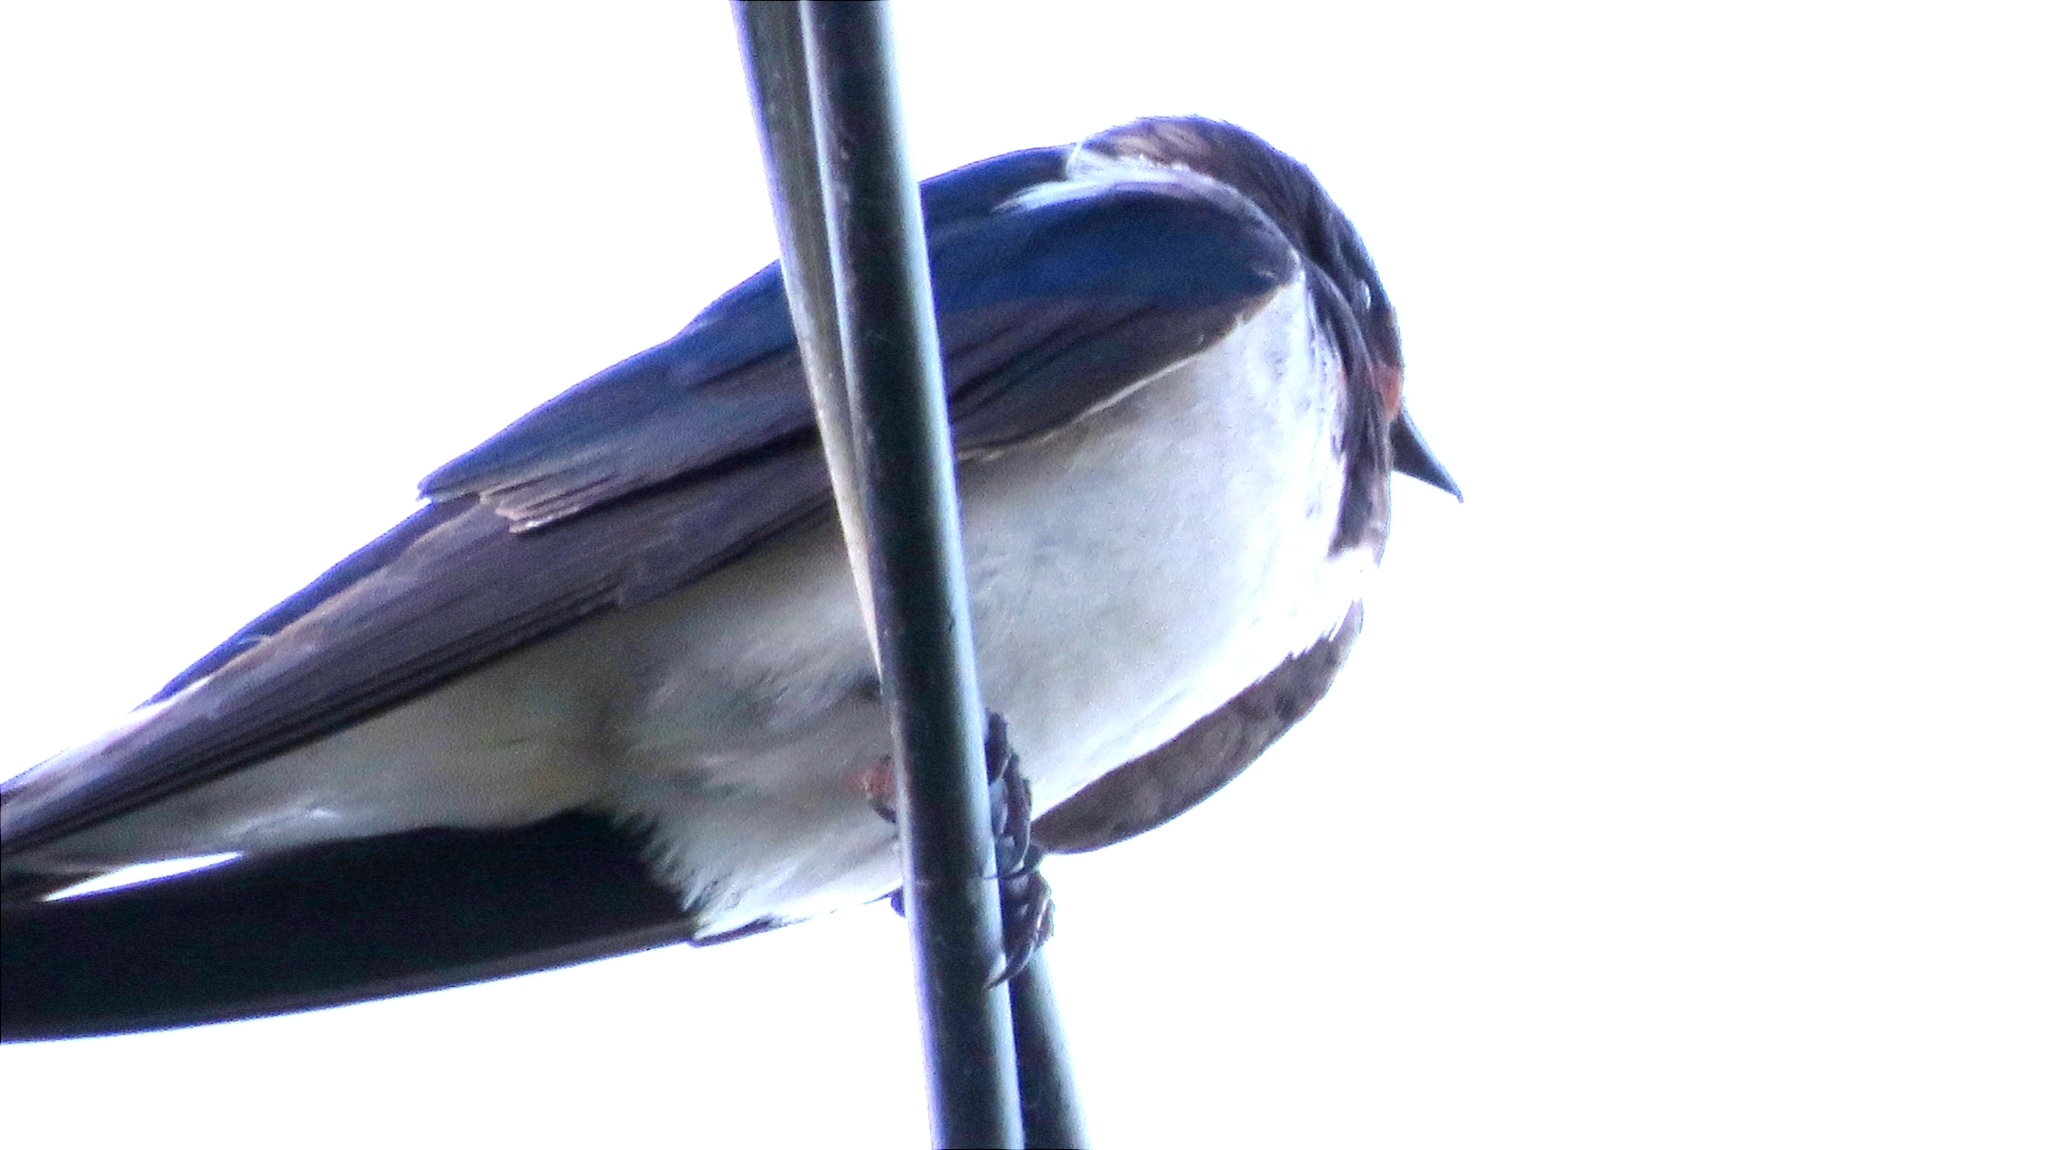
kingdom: Animalia
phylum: Chordata
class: Aves
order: Passeriformes
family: Hirundinidae
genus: Hirundo
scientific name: Hirundo rustica
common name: Barn swallow
